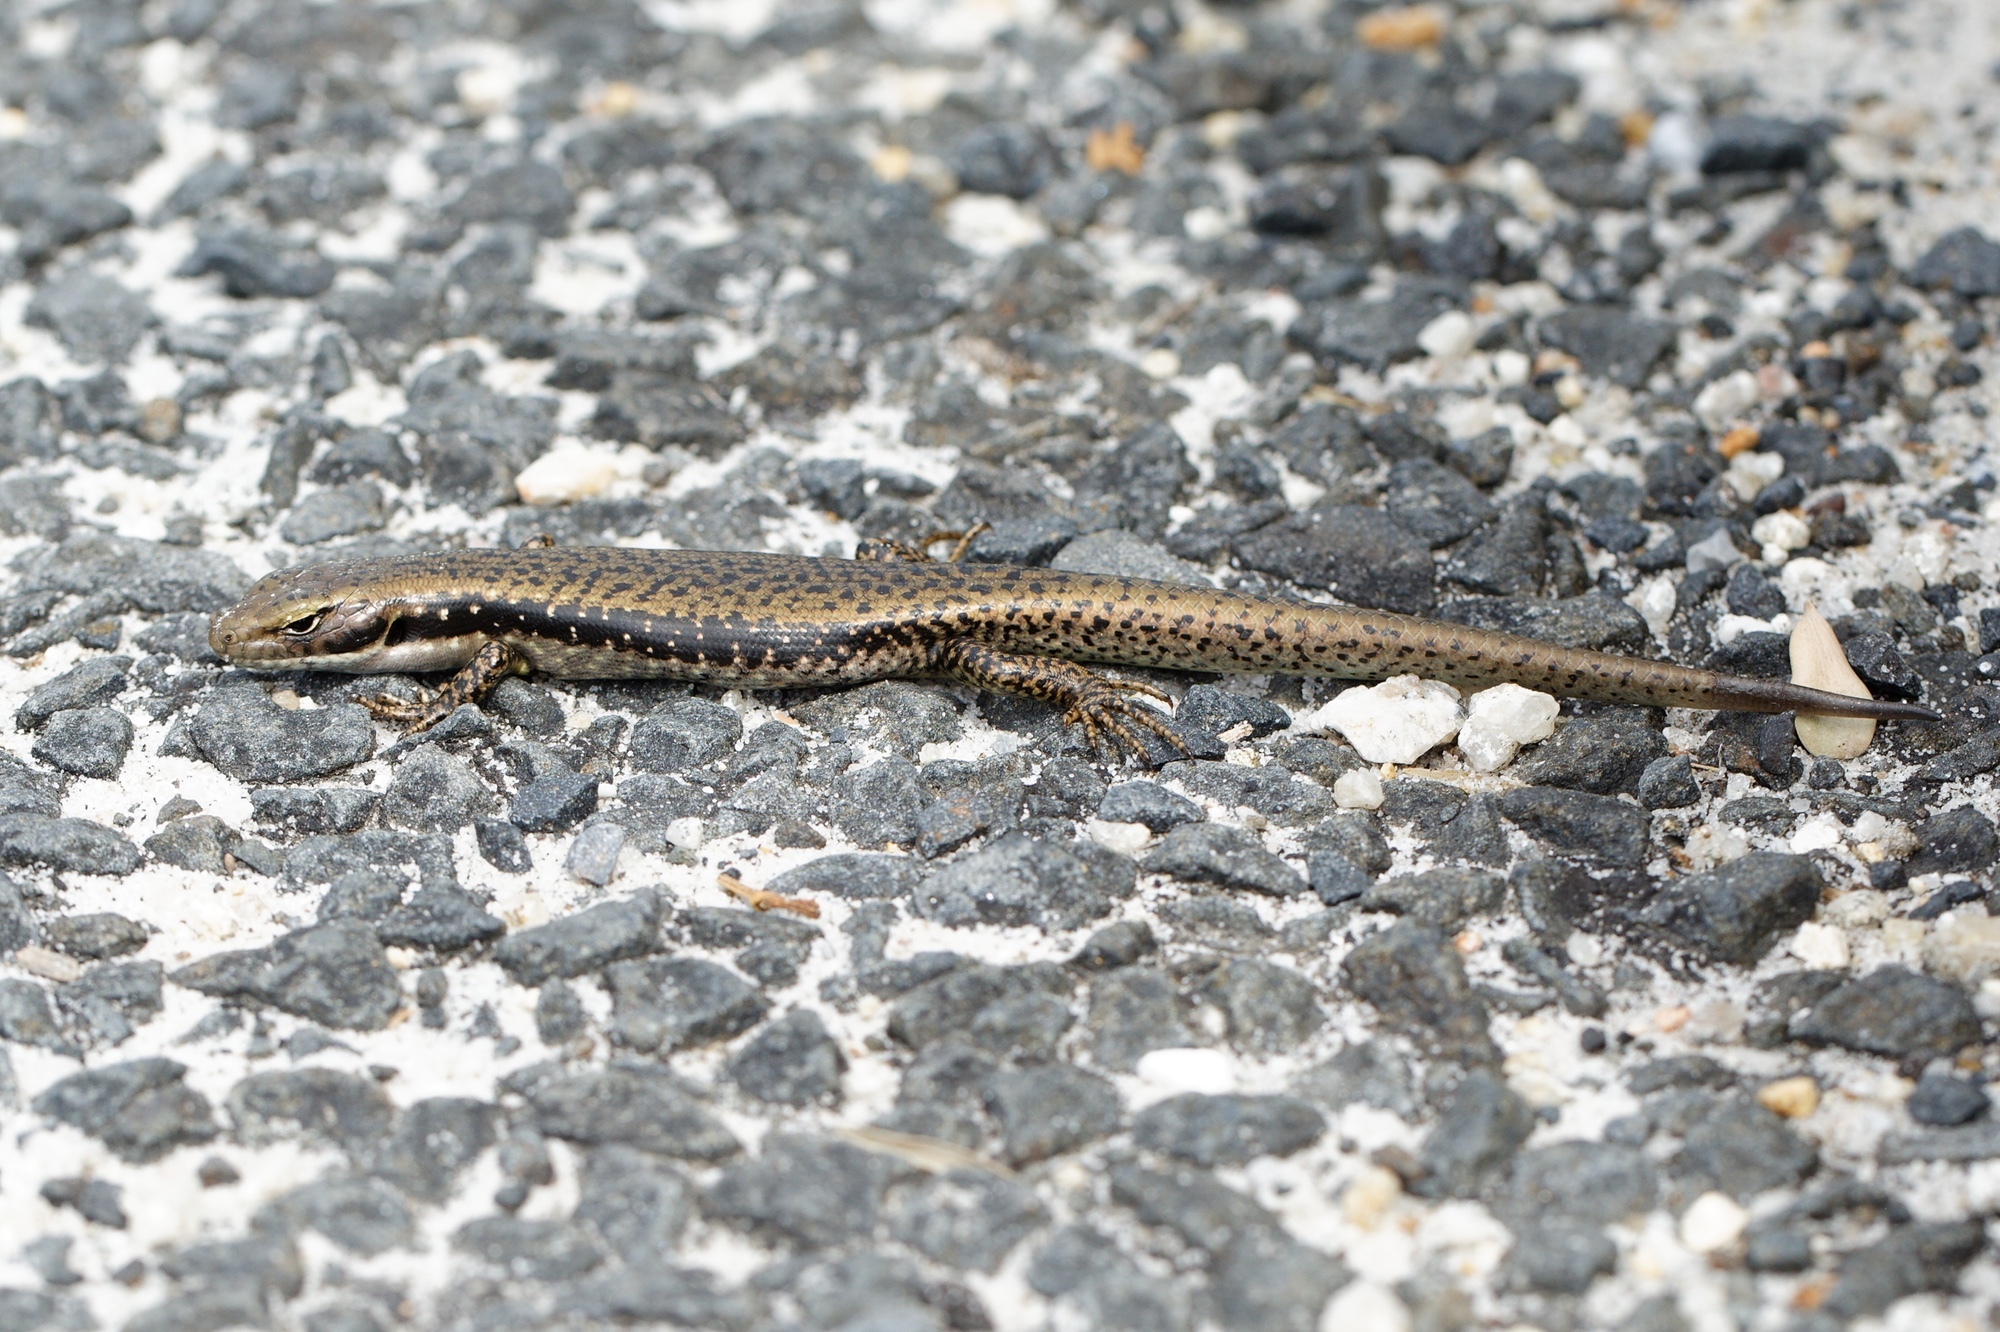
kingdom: Animalia
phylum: Chordata
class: Squamata
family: Scincidae
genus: Eulamprus
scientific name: Eulamprus tympanum
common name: Cool-temperate water-skink
